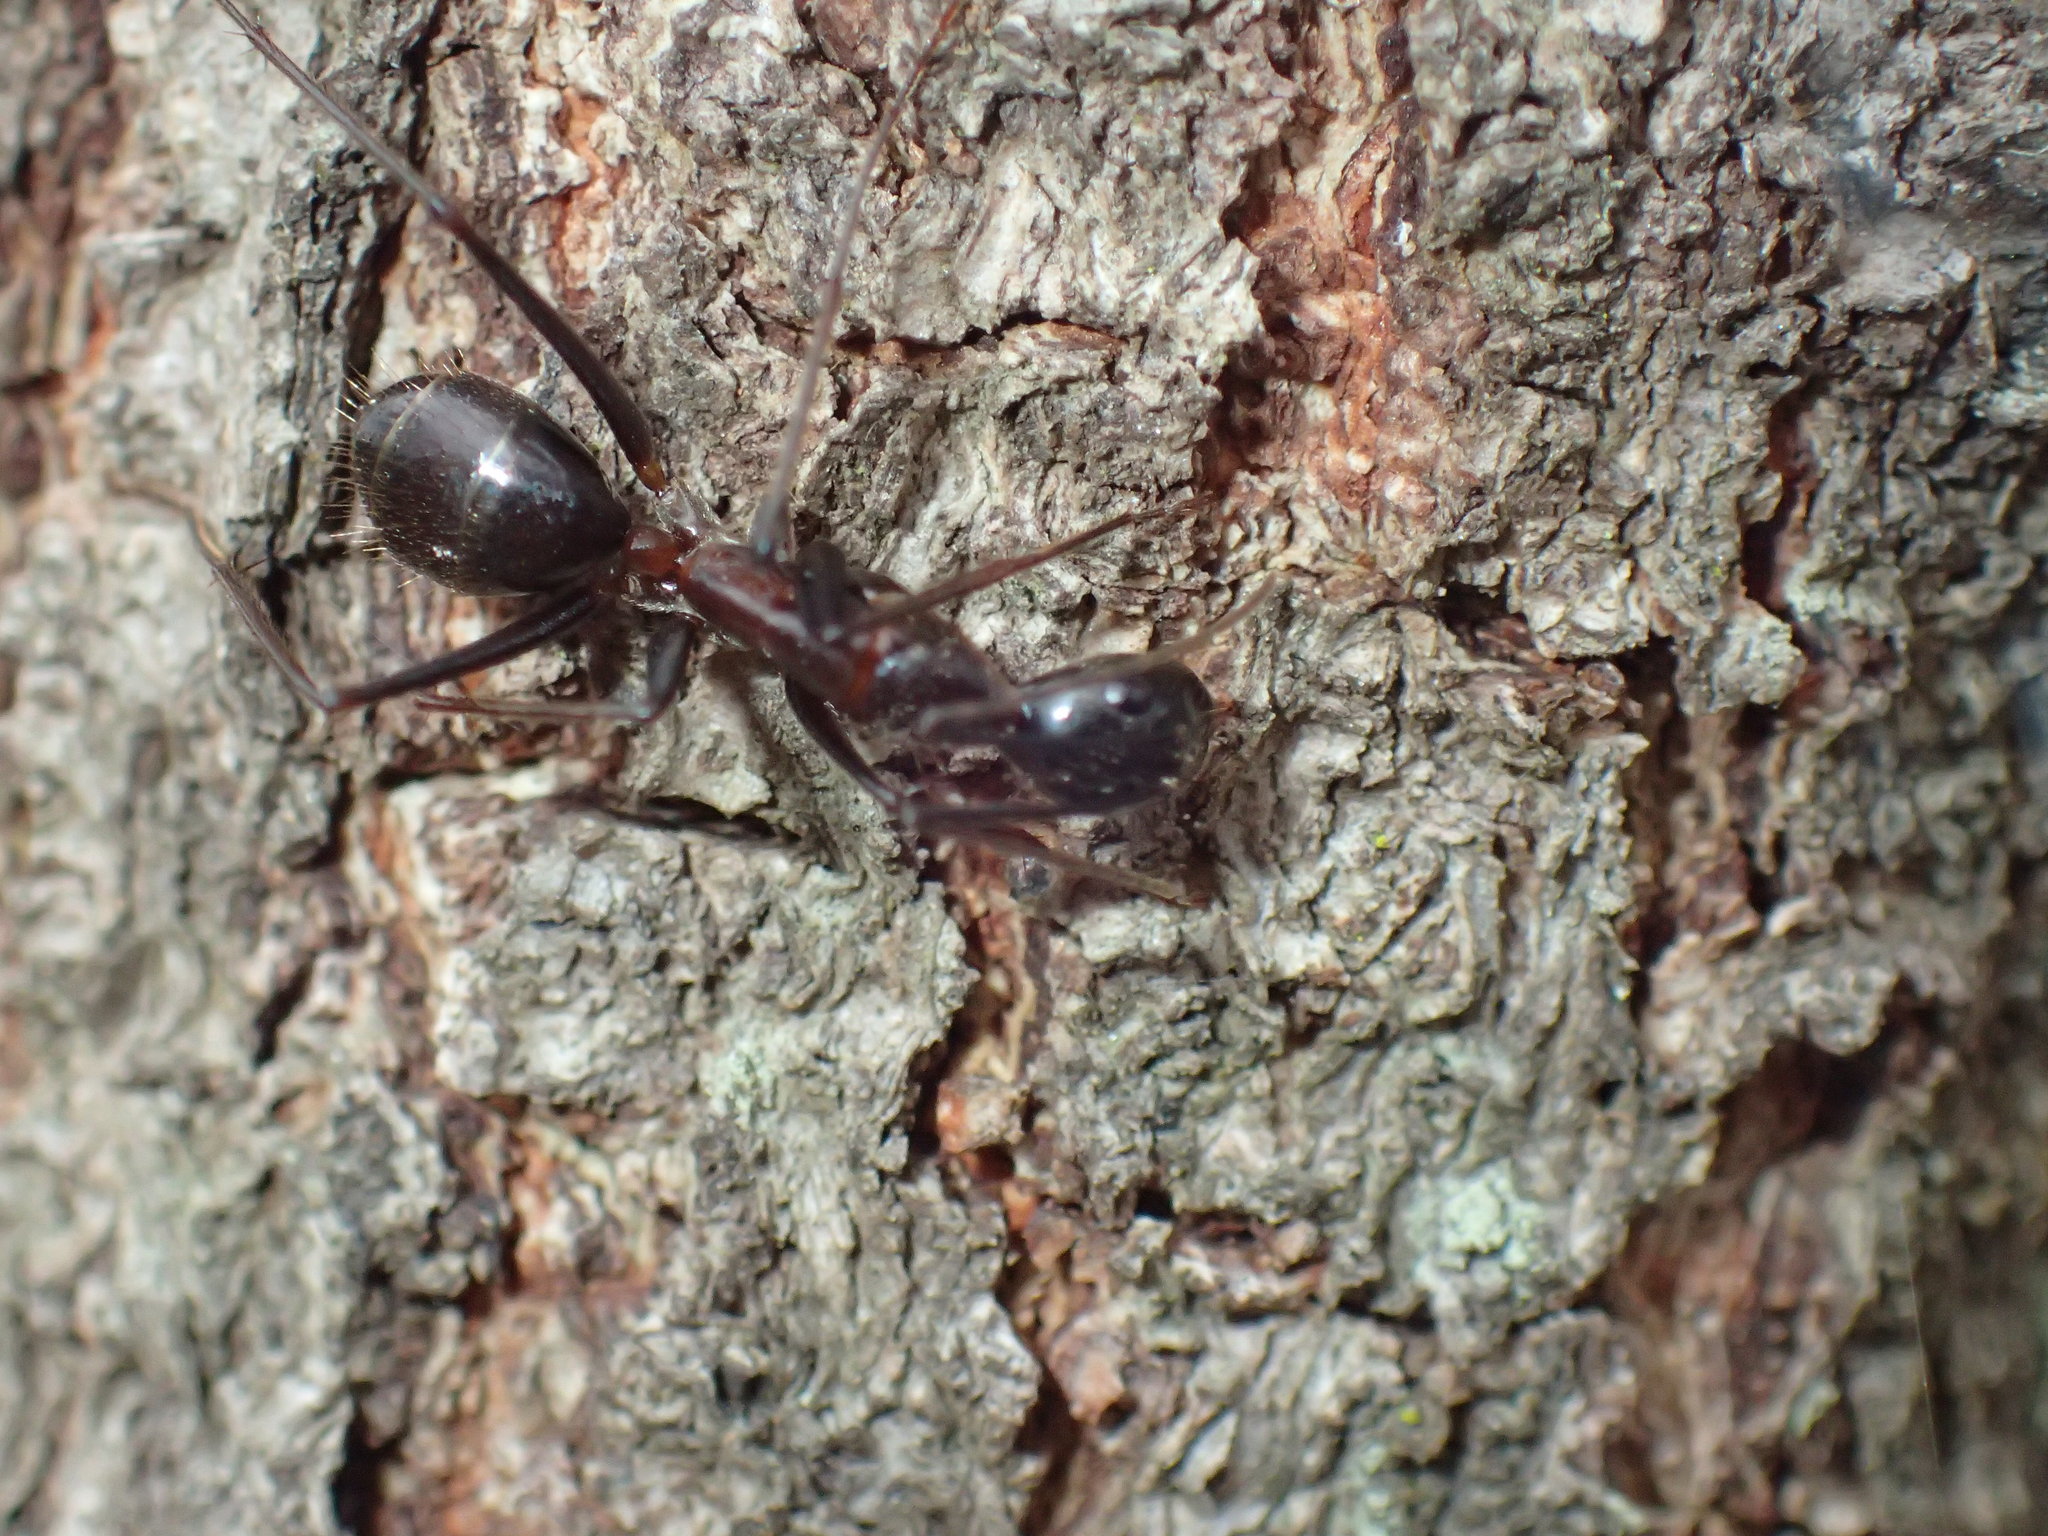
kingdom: Animalia
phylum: Arthropoda
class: Insecta
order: Hymenoptera
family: Formicidae
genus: Camponotus
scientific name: Camponotus etiolipes
